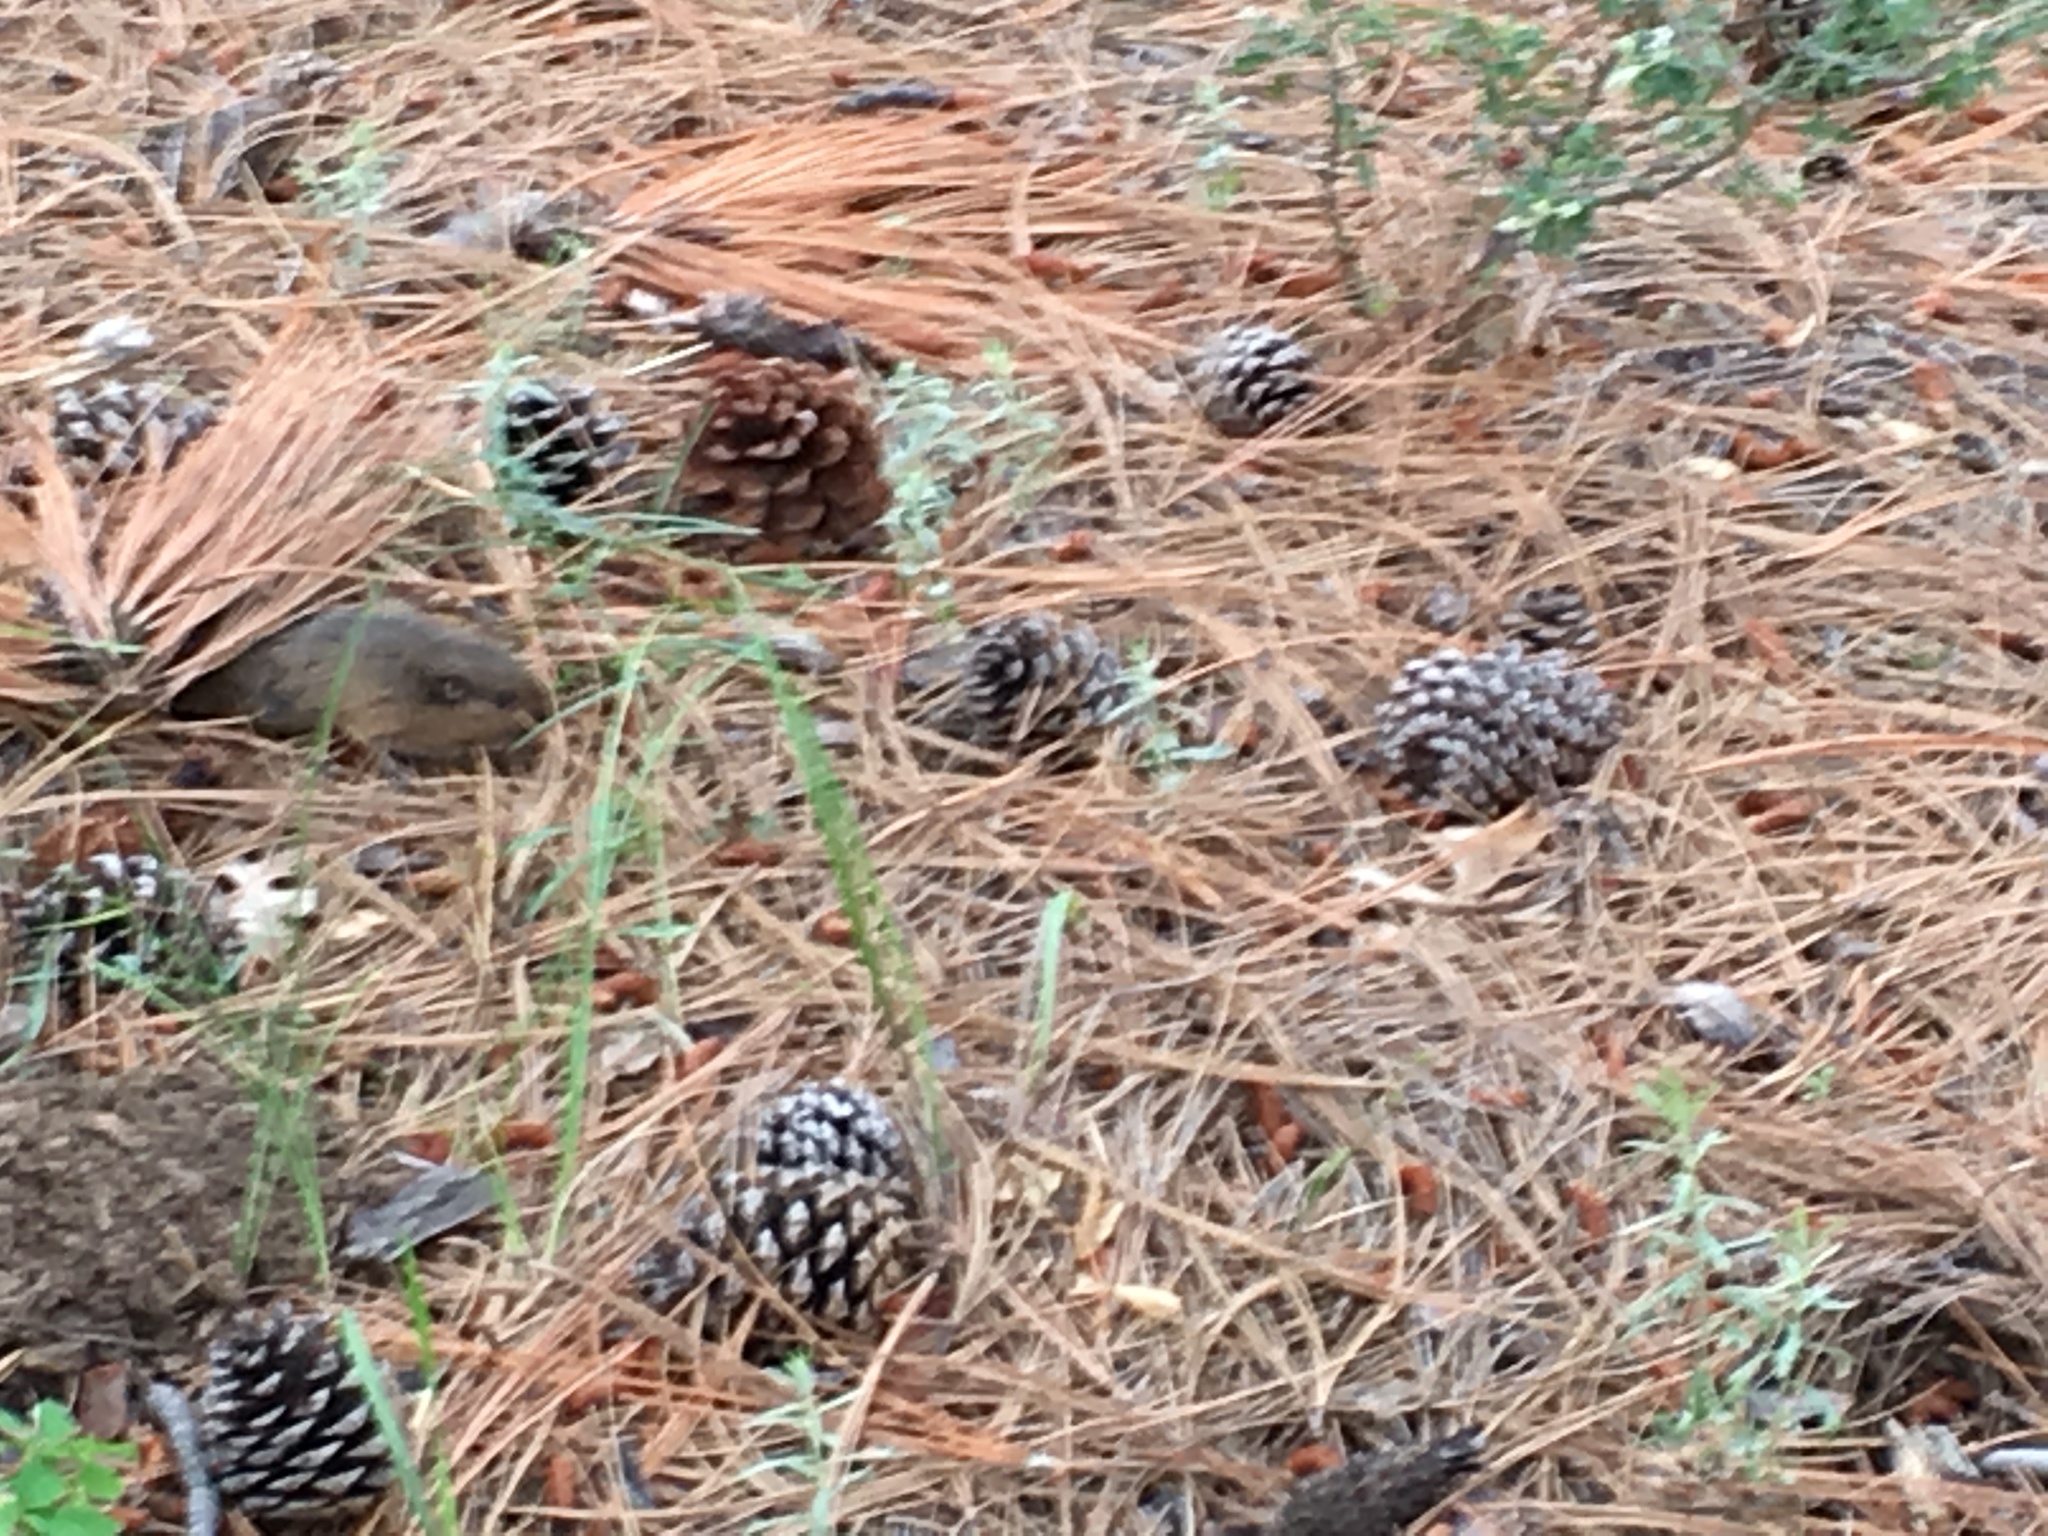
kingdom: Animalia
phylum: Chordata
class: Mammalia
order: Rodentia
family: Geomyidae
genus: Thomomys
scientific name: Thomomys bottae
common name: Botta's pocket gopher
